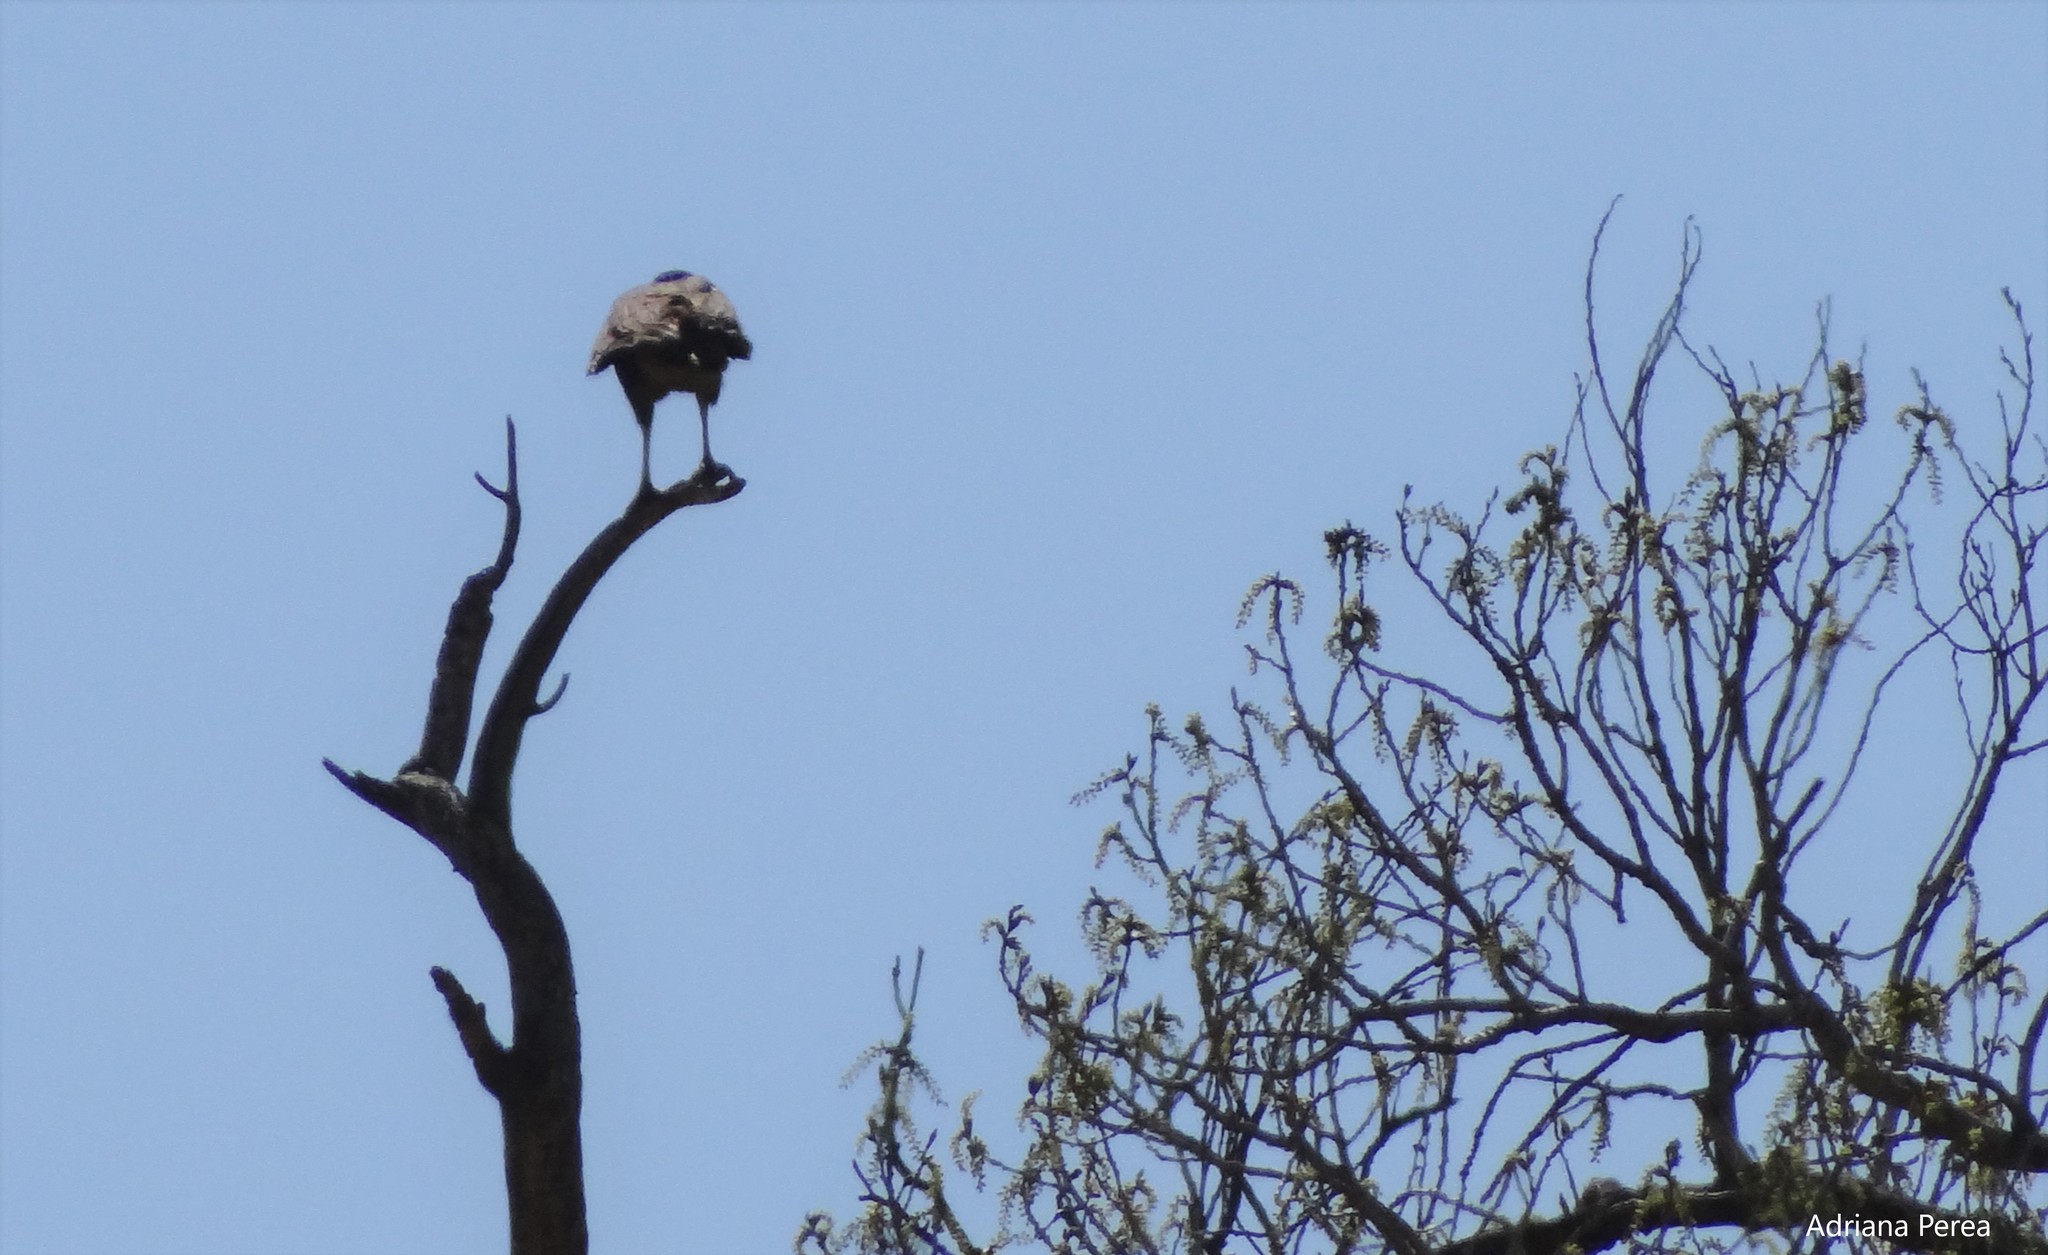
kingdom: Animalia
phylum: Chordata
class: Aves
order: Falconiformes
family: Falconidae
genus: Caracara
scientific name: Caracara plancus
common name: Southern caracara
